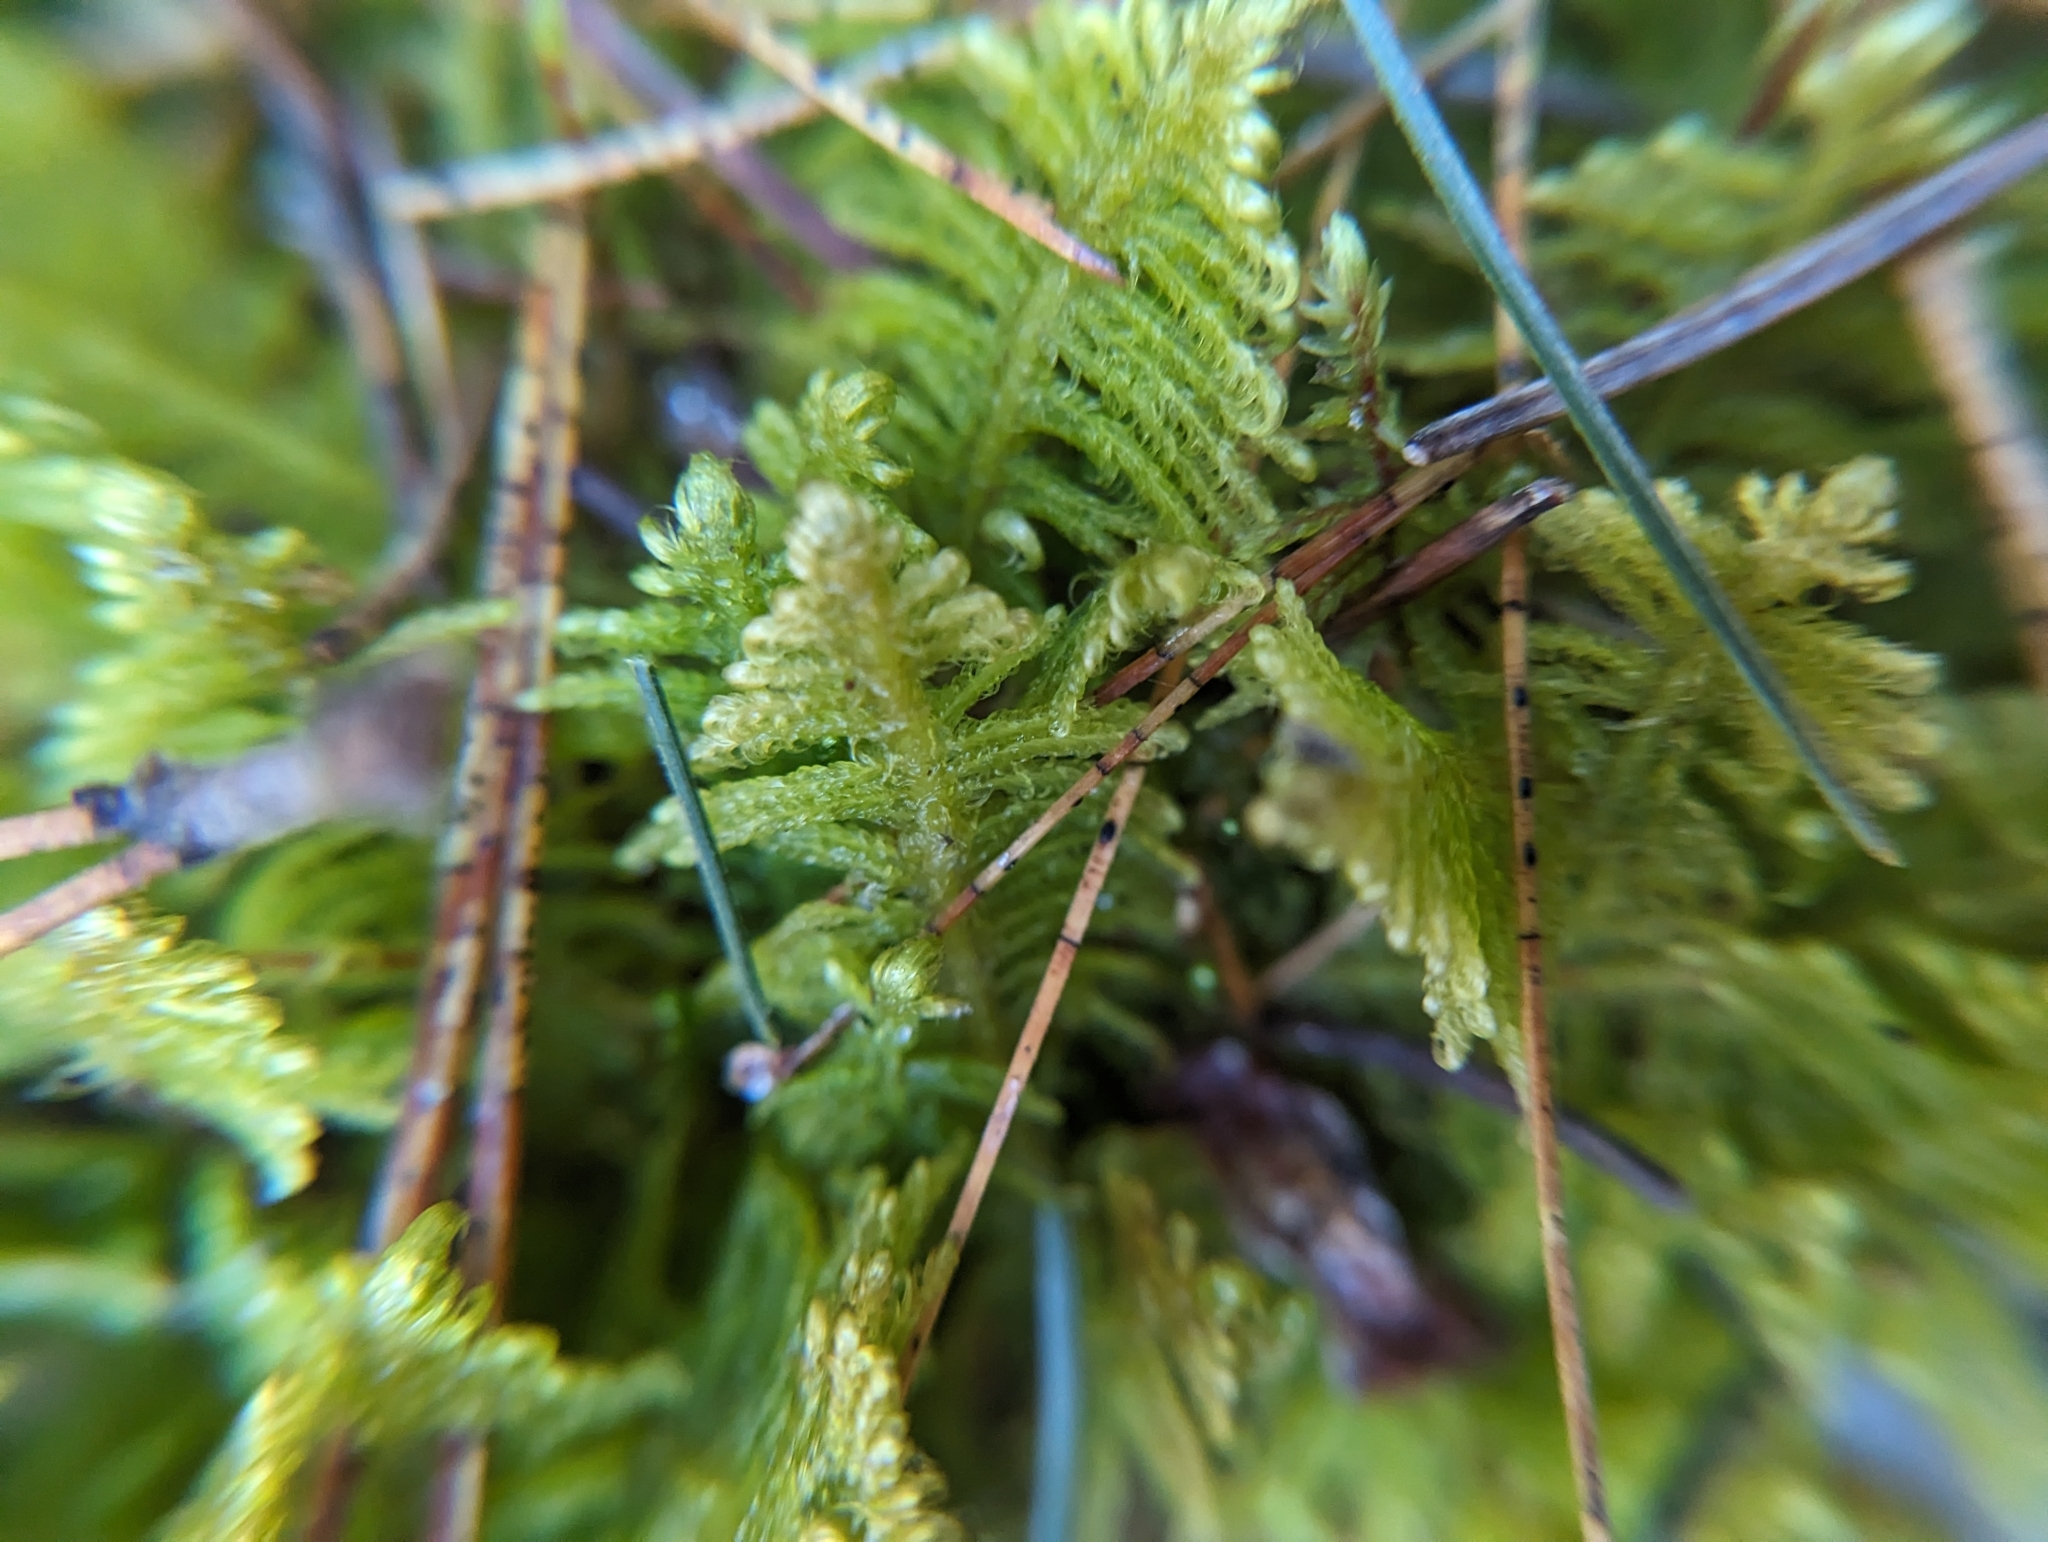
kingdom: Plantae
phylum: Bryophyta
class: Bryopsida
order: Hypnales
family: Pylaisiaceae
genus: Ptilium
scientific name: Ptilium crista-castrensis
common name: Knight's plume moss
